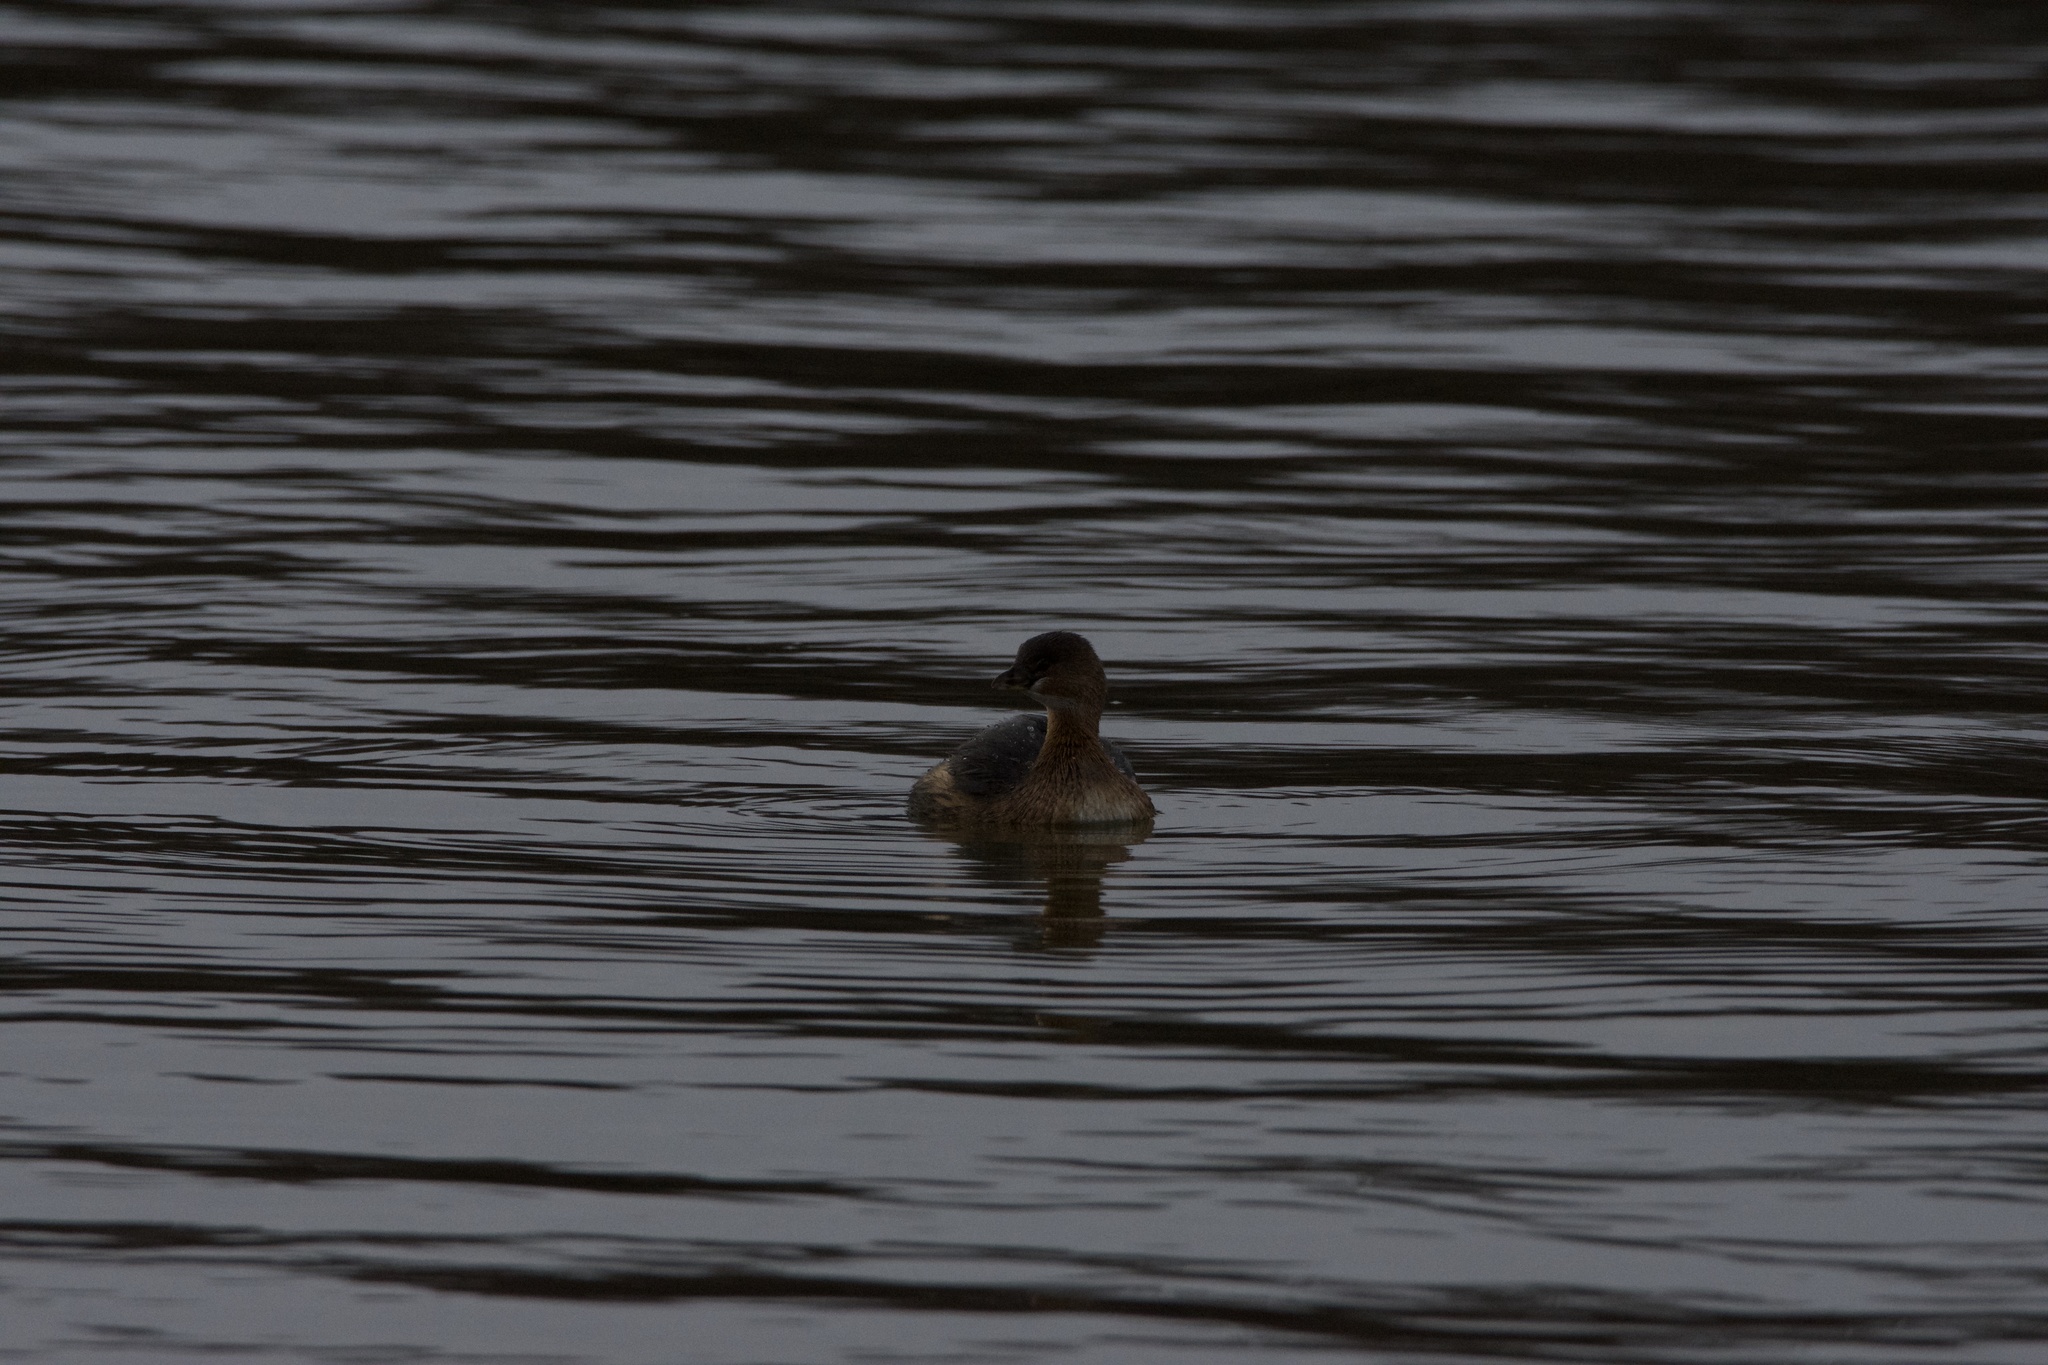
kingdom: Animalia
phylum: Chordata
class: Aves
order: Podicipediformes
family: Podicipedidae
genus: Podilymbus
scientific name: Podilymbus podiceps
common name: Pied-billed grebe
